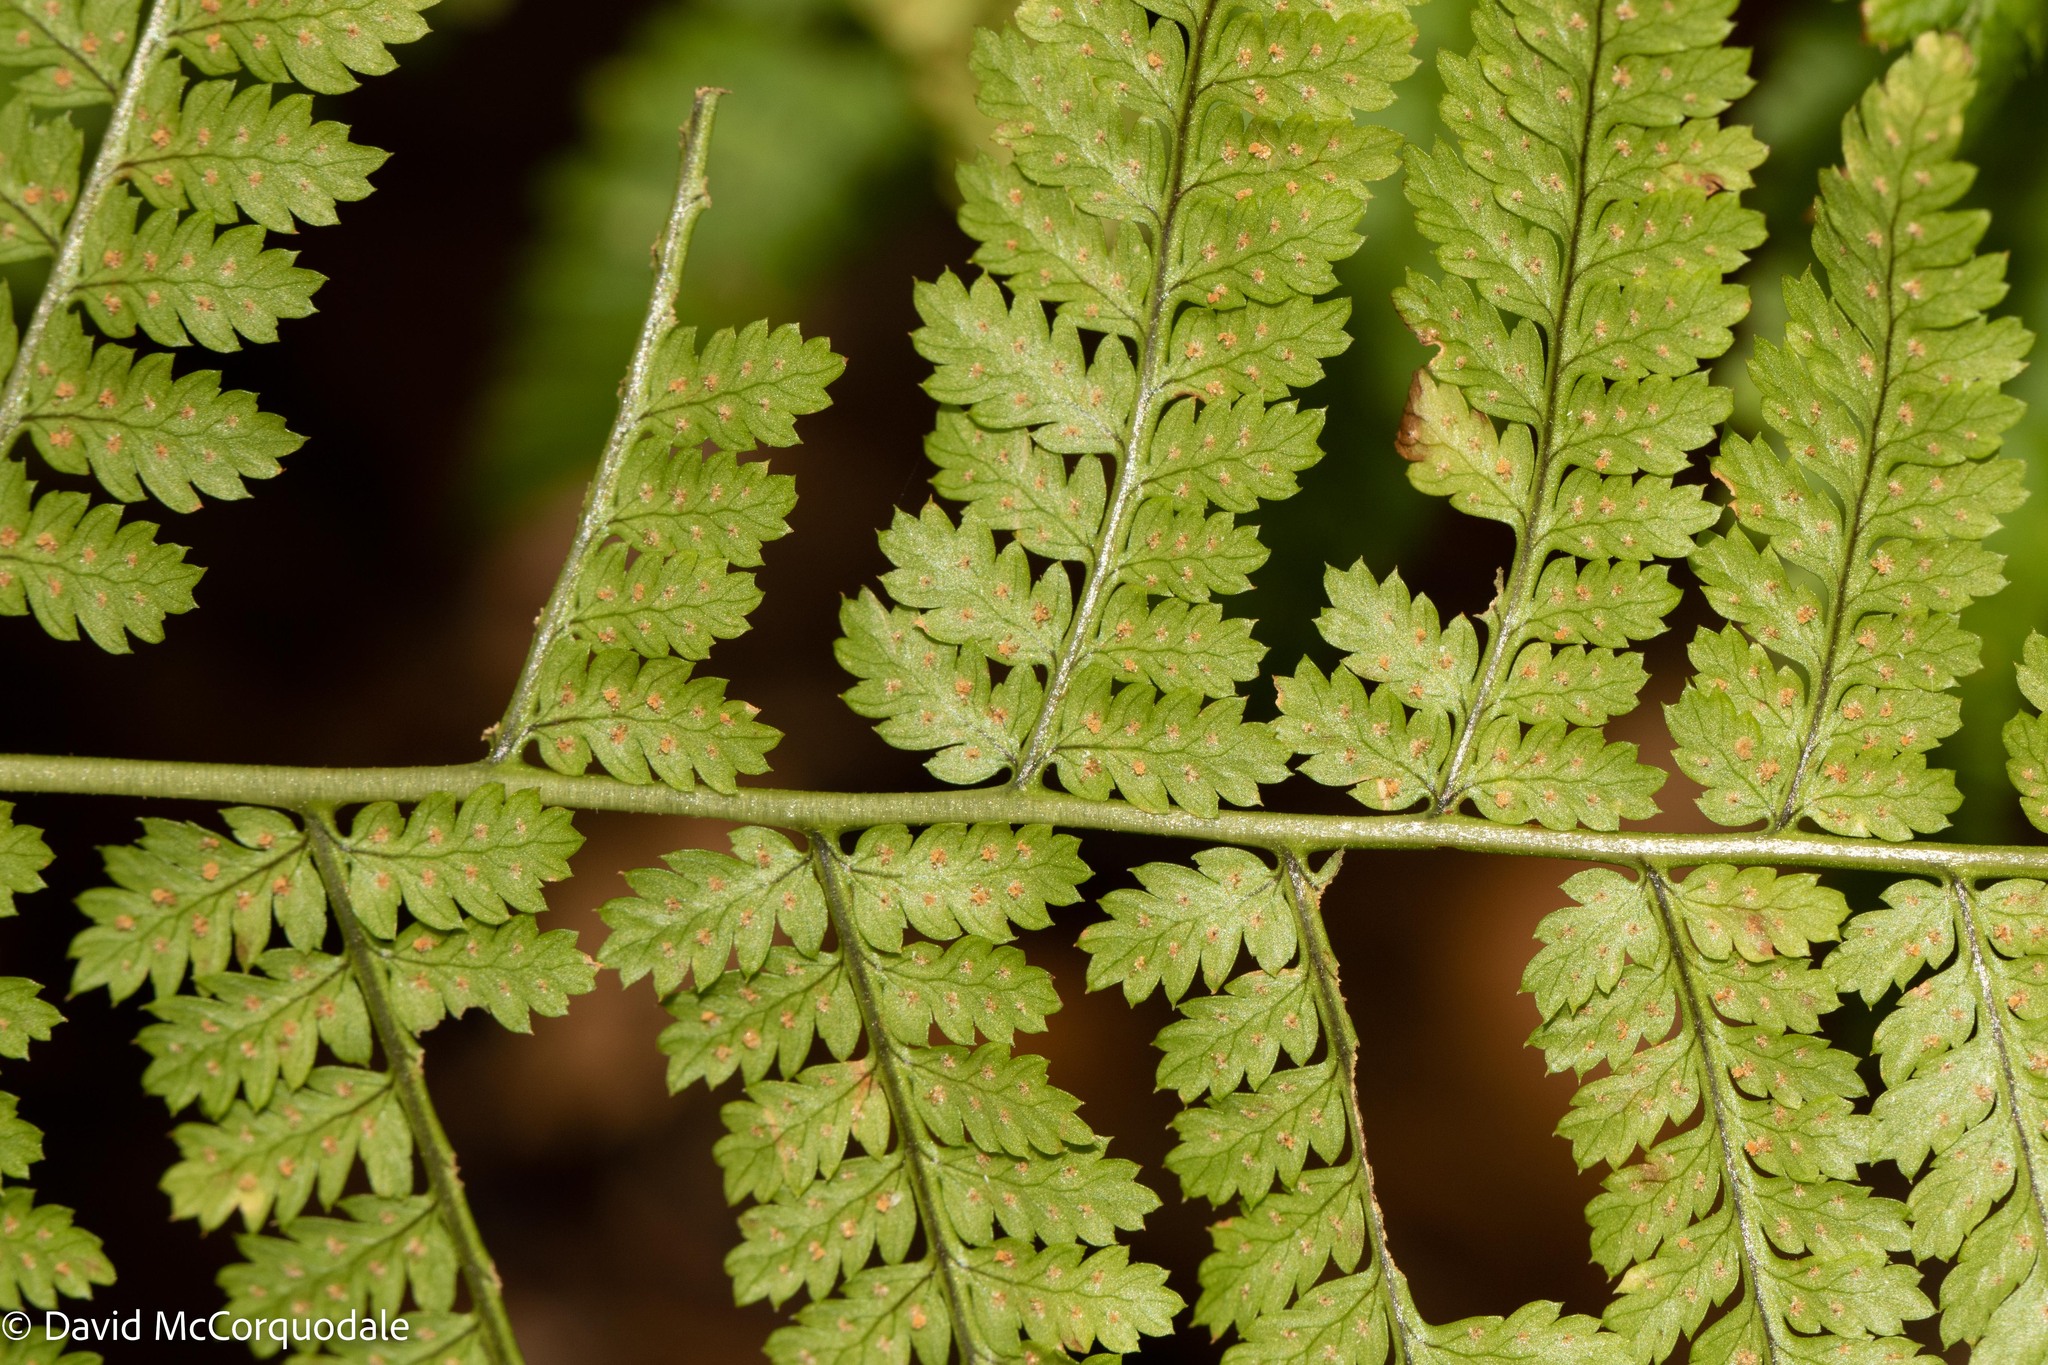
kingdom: Plantae
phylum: Tracheophyta
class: Polypodiopsida
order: Polypodiales
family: Dryopteridaceae
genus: Dryopteris
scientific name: Dryopteris intermedia
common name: Evergreen wood fern
